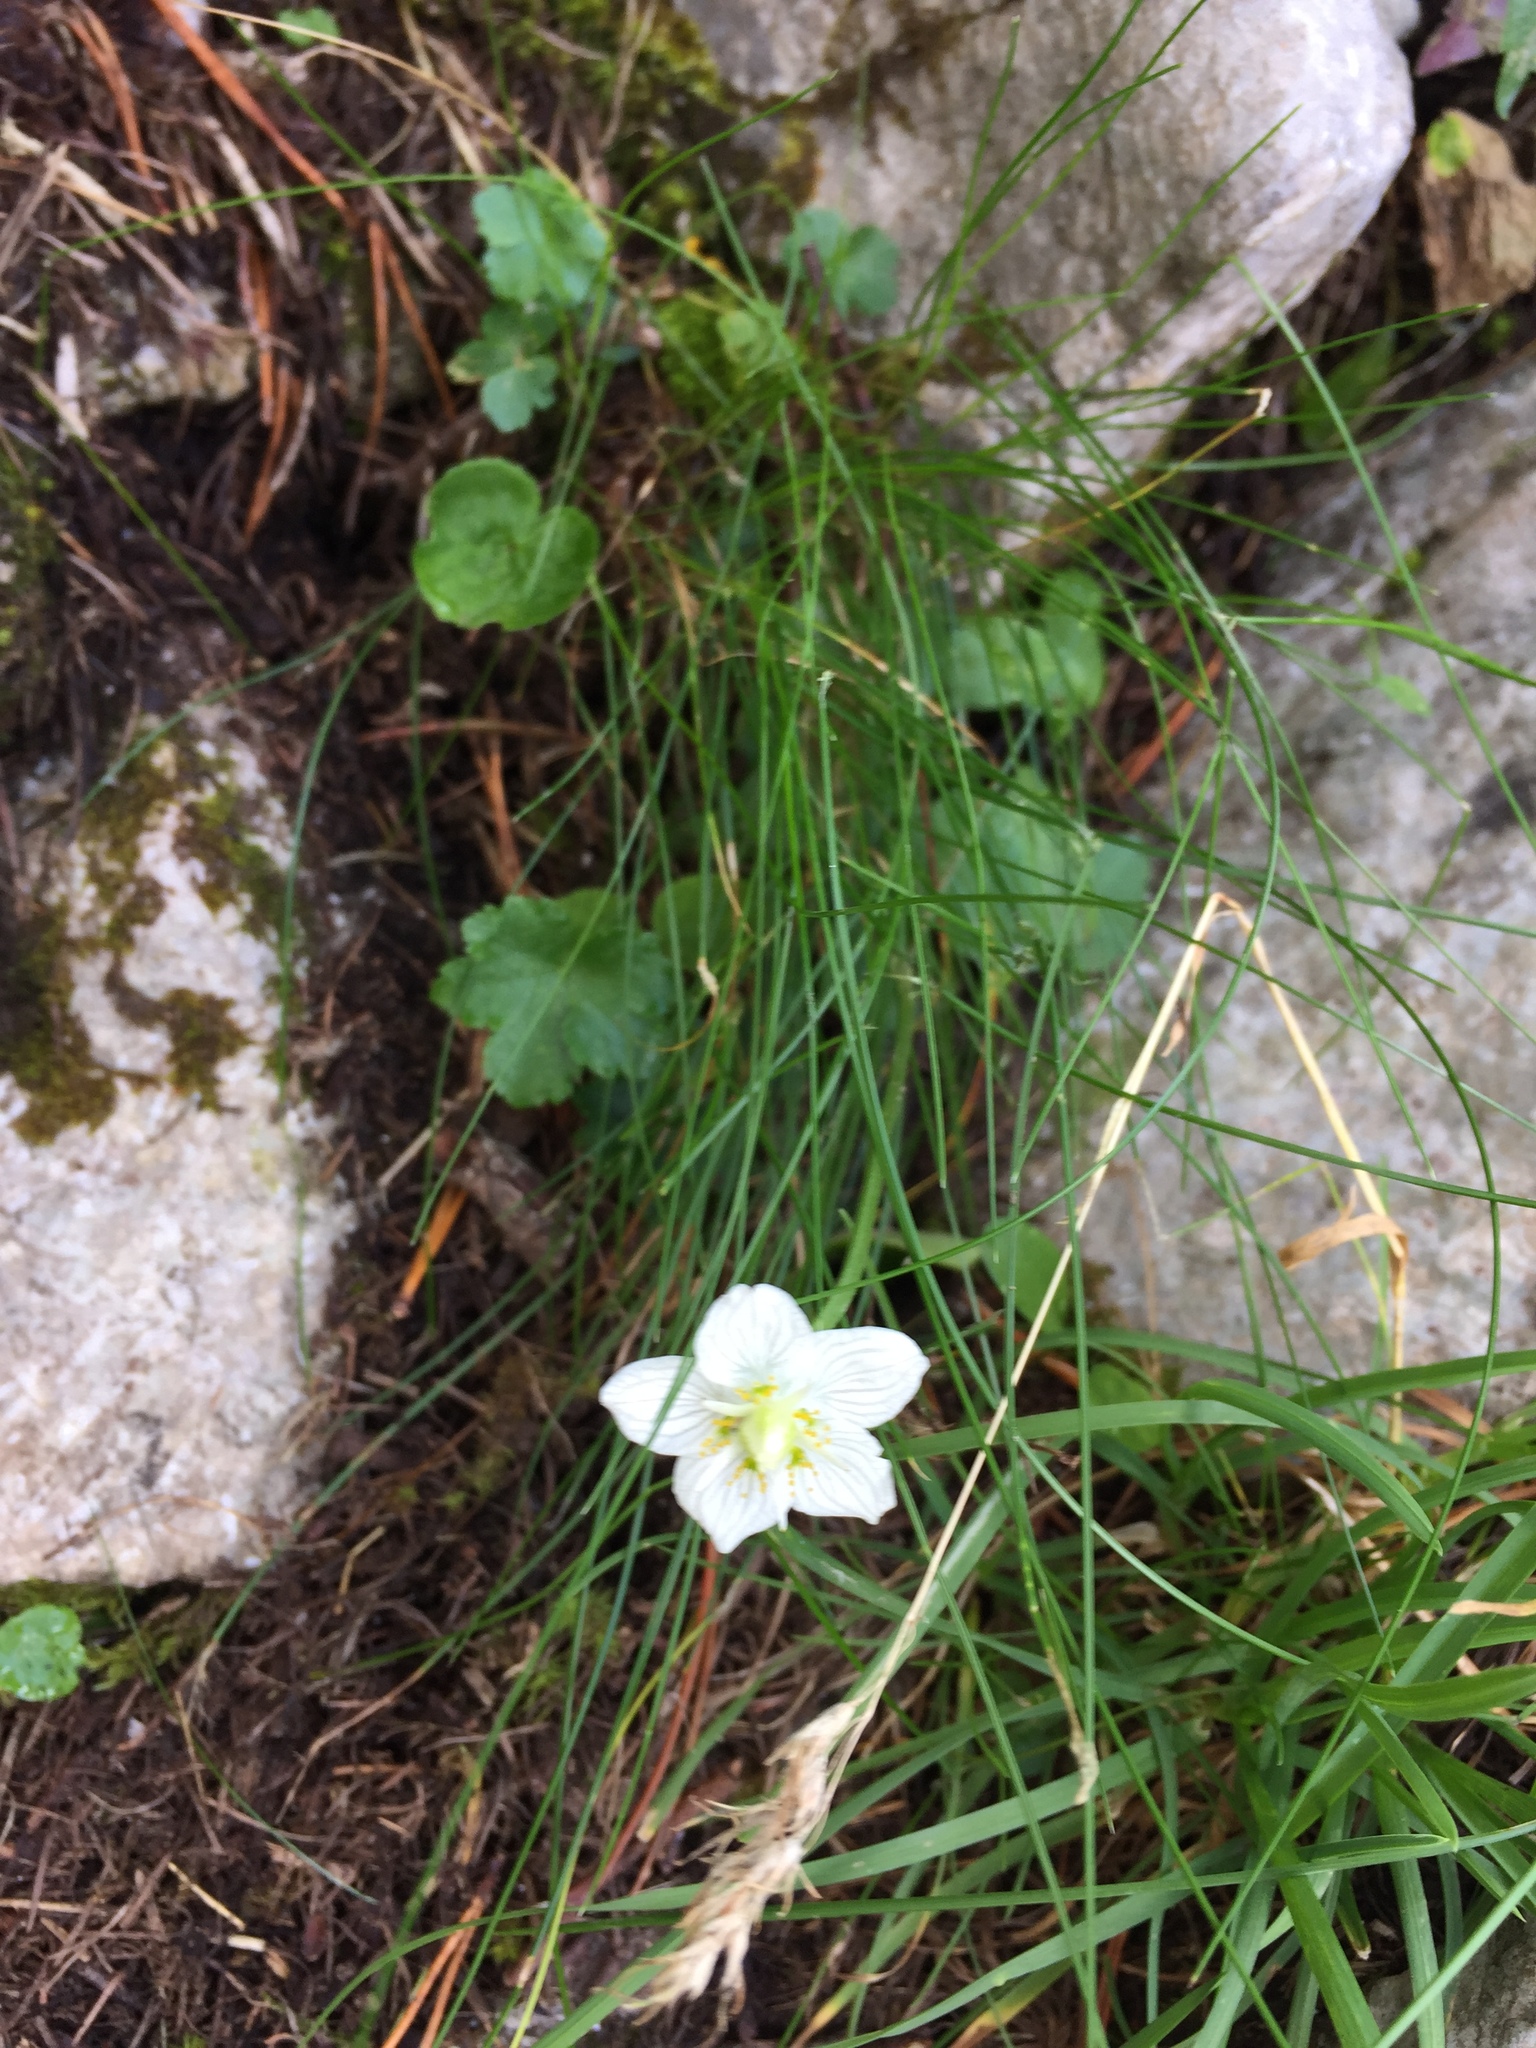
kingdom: Plantae
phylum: Tracheophyta
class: Magnoliopsida
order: Celastrales
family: Parnassiaceae
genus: Parnassia
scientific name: Parnassia palustris
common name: Grass-of-parnassus
